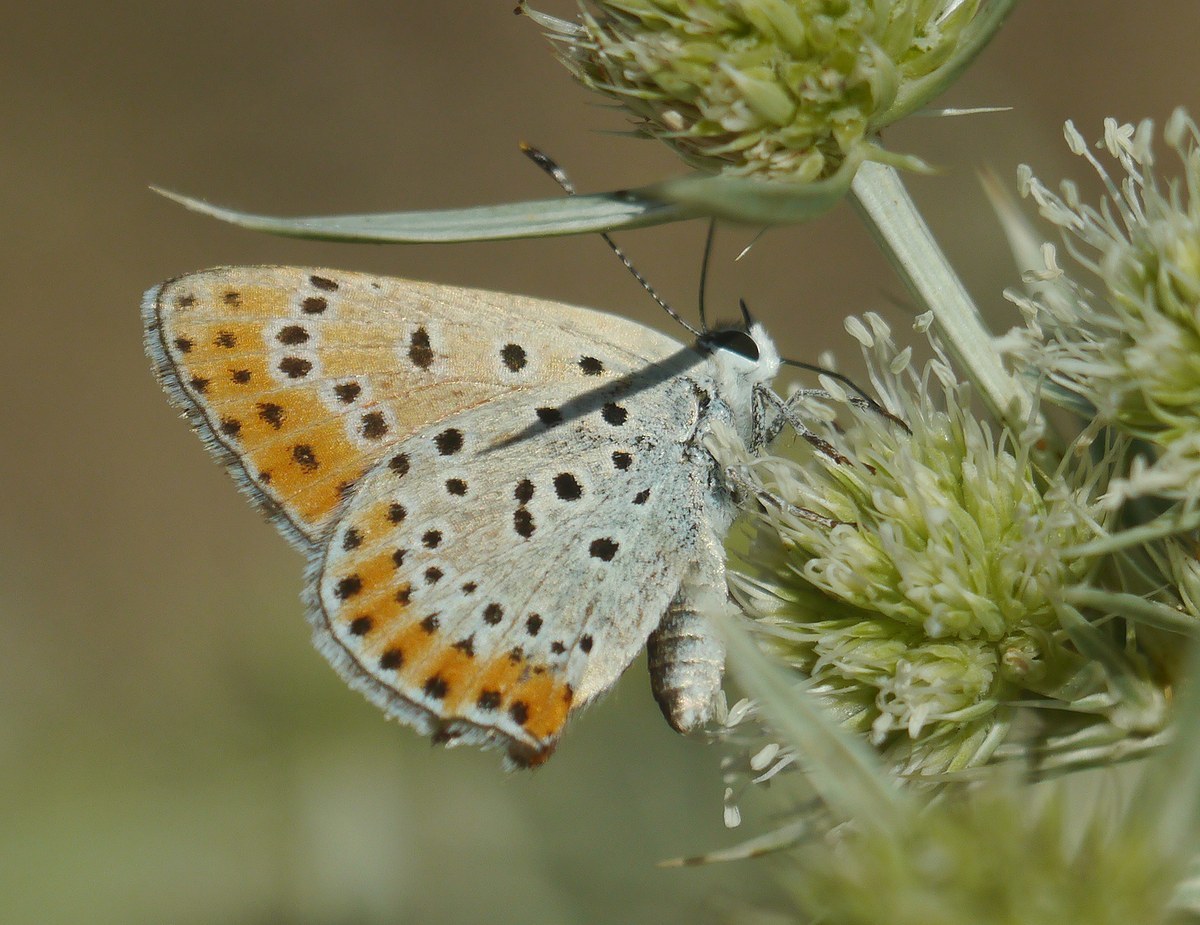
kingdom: Animalia
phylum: Arthropoda
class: Insecta
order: Lepidoptera
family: Lycaenidae
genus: Thersamonia
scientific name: Thersamonia thersamon
